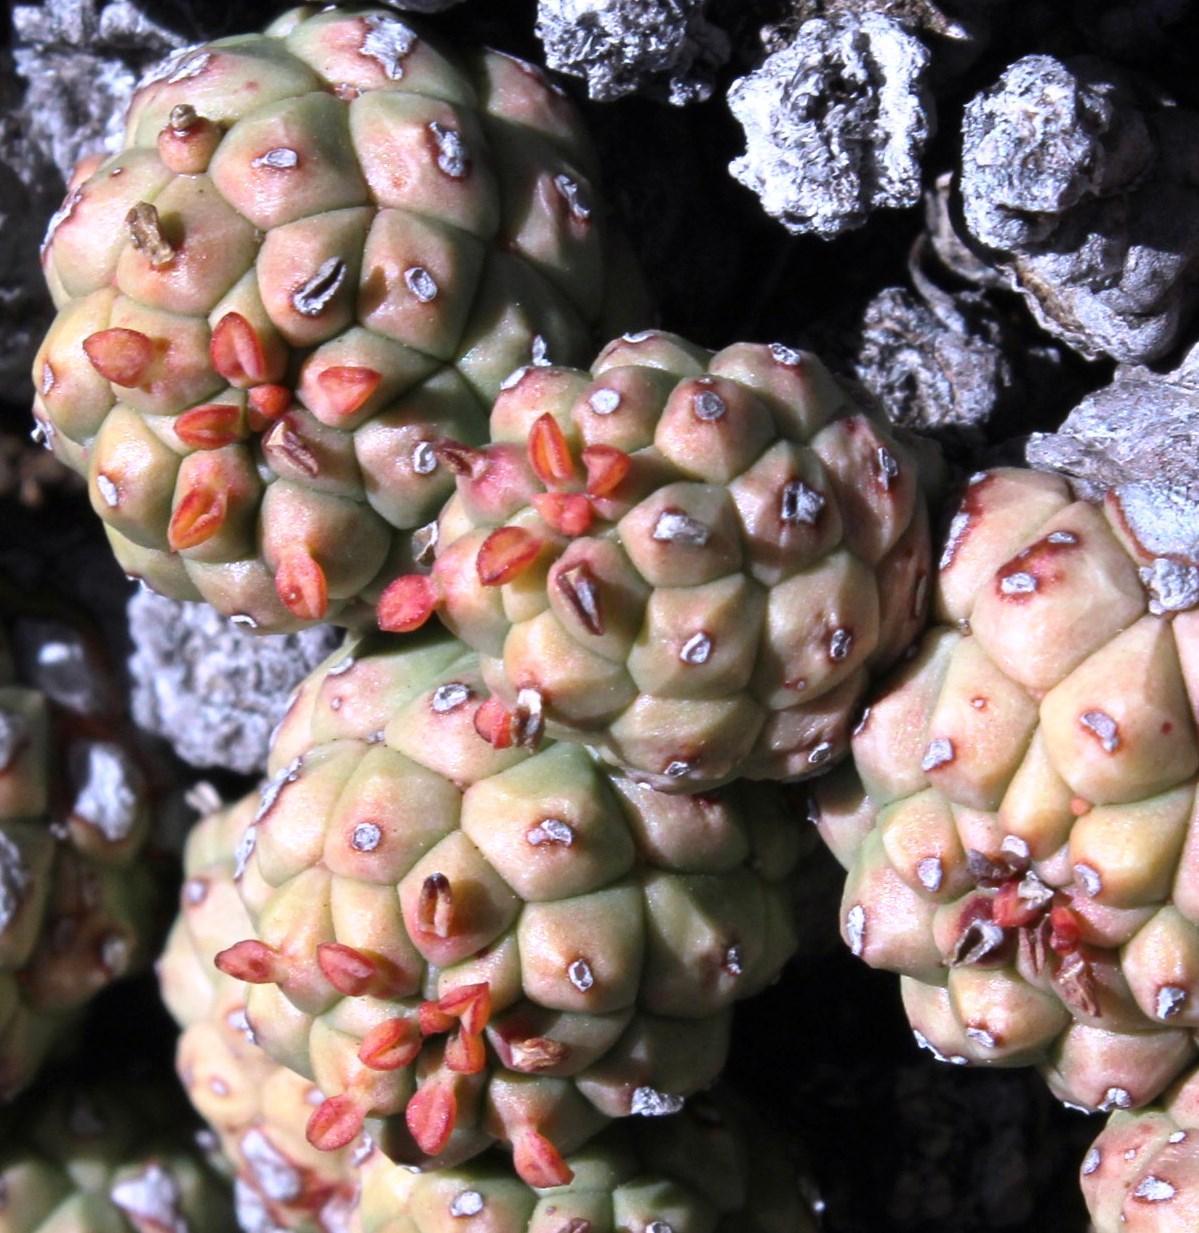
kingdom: Plantae
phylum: Tracheophyta
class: Magnoliopsida
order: Malpighiales
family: Euphorbiaceae
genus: Euphorbia
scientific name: Euphorbia clavarioides
